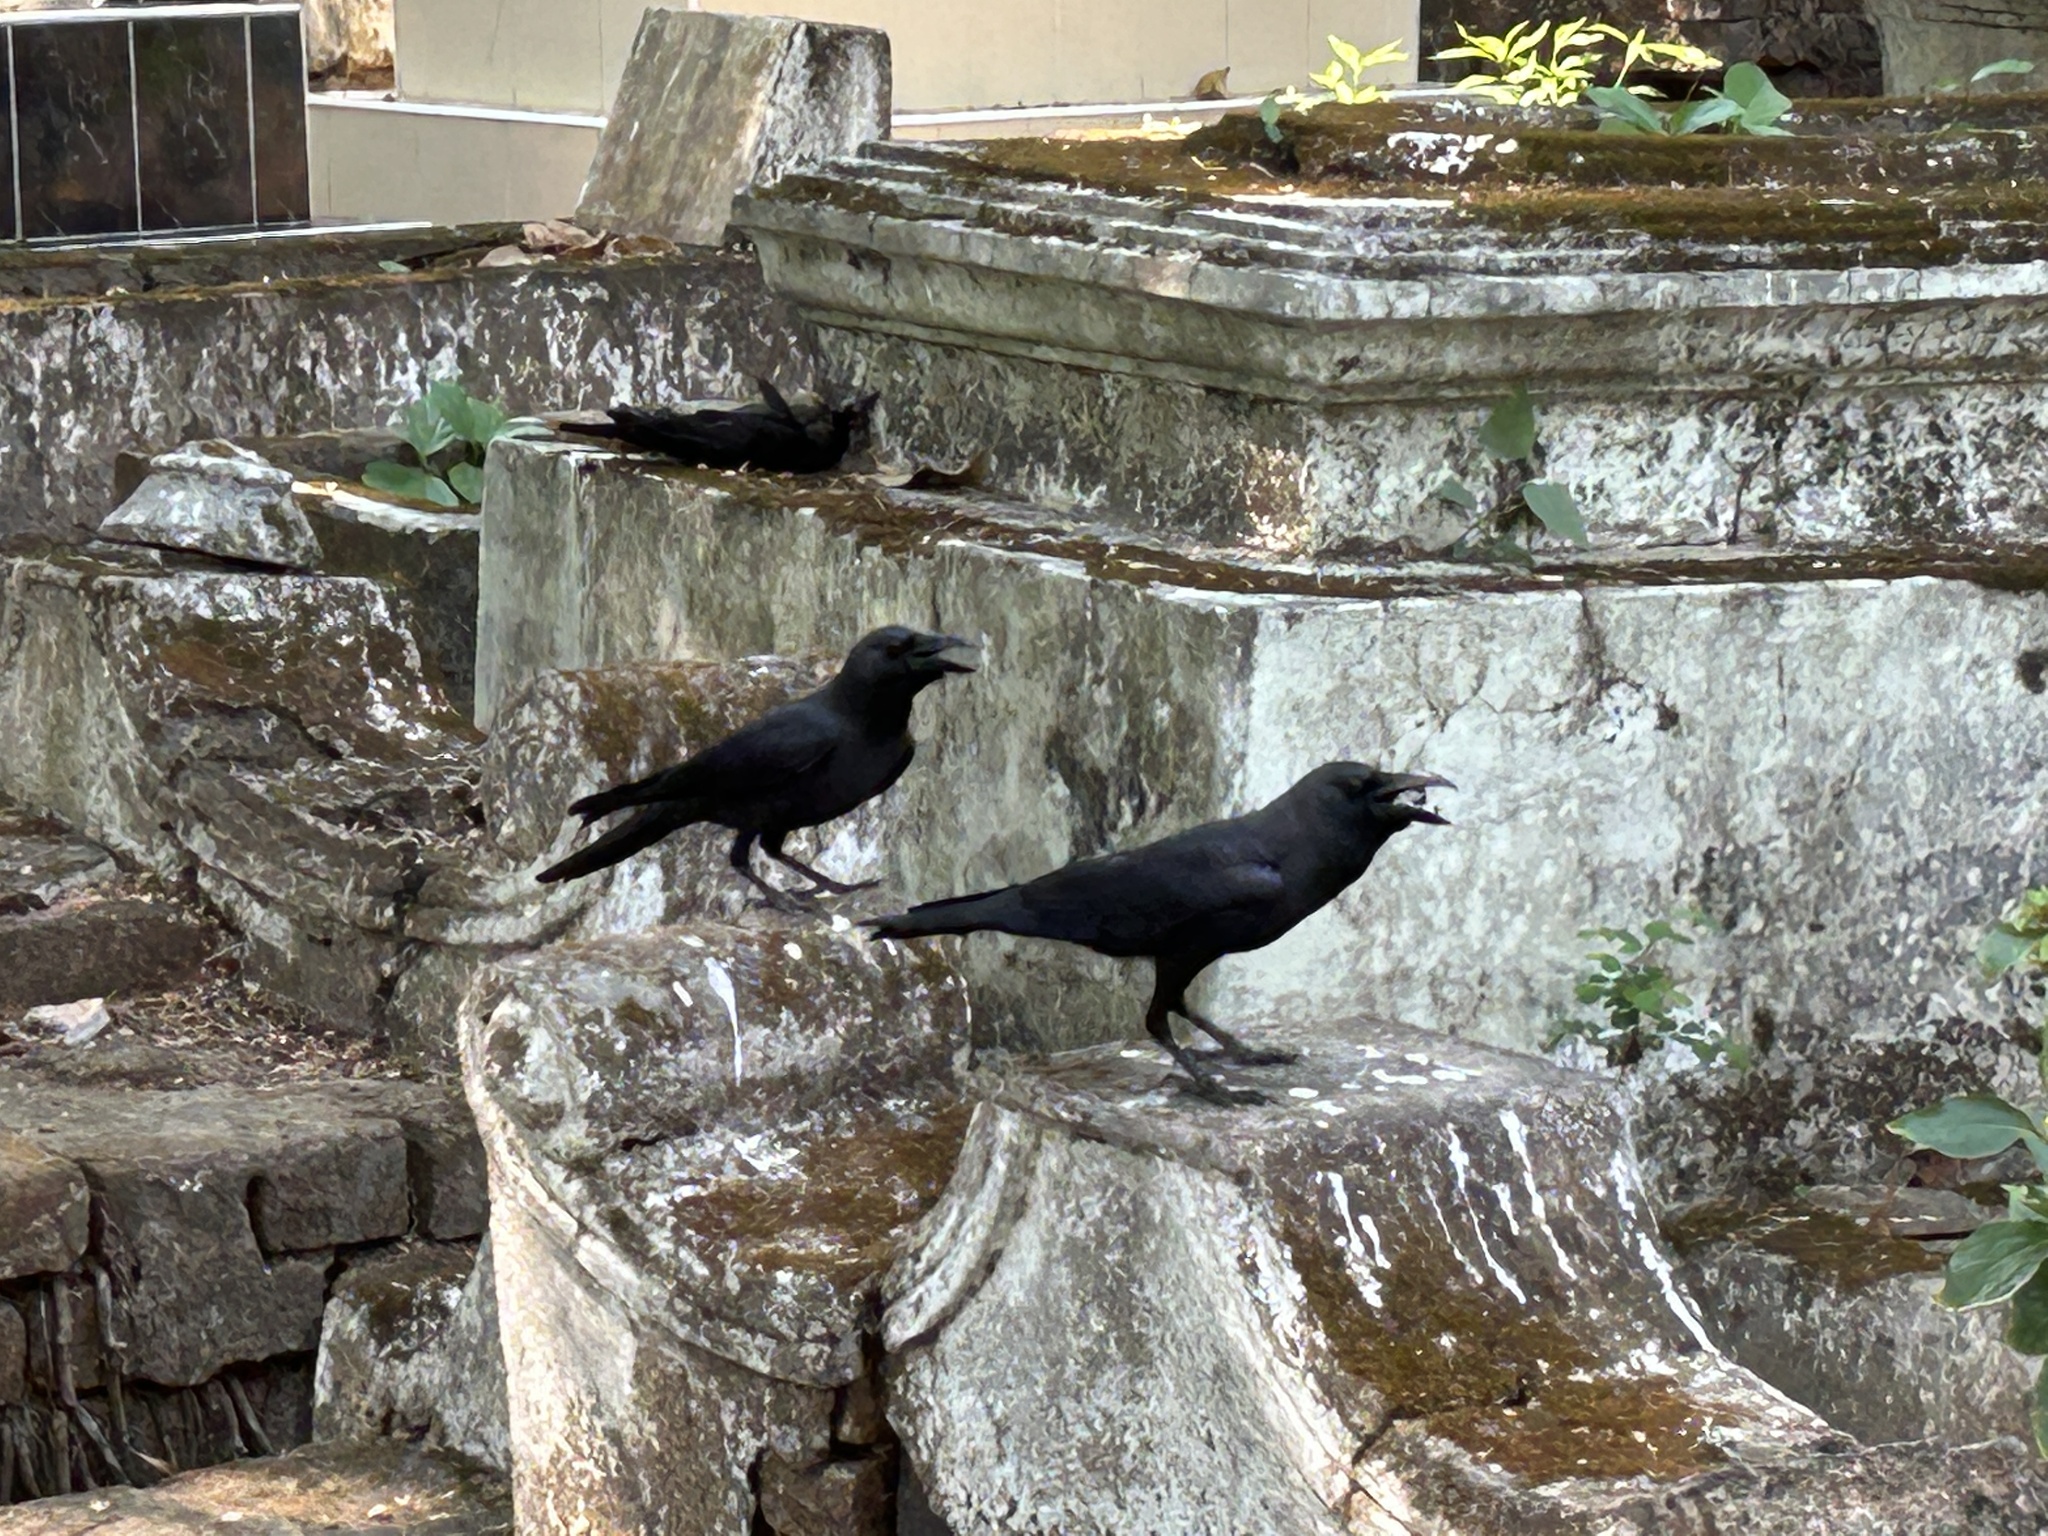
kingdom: Animalia
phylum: Chordata
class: Aves
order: Passeriformes
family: Corvidae
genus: Corvus
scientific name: Corvus splendens
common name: House crow
